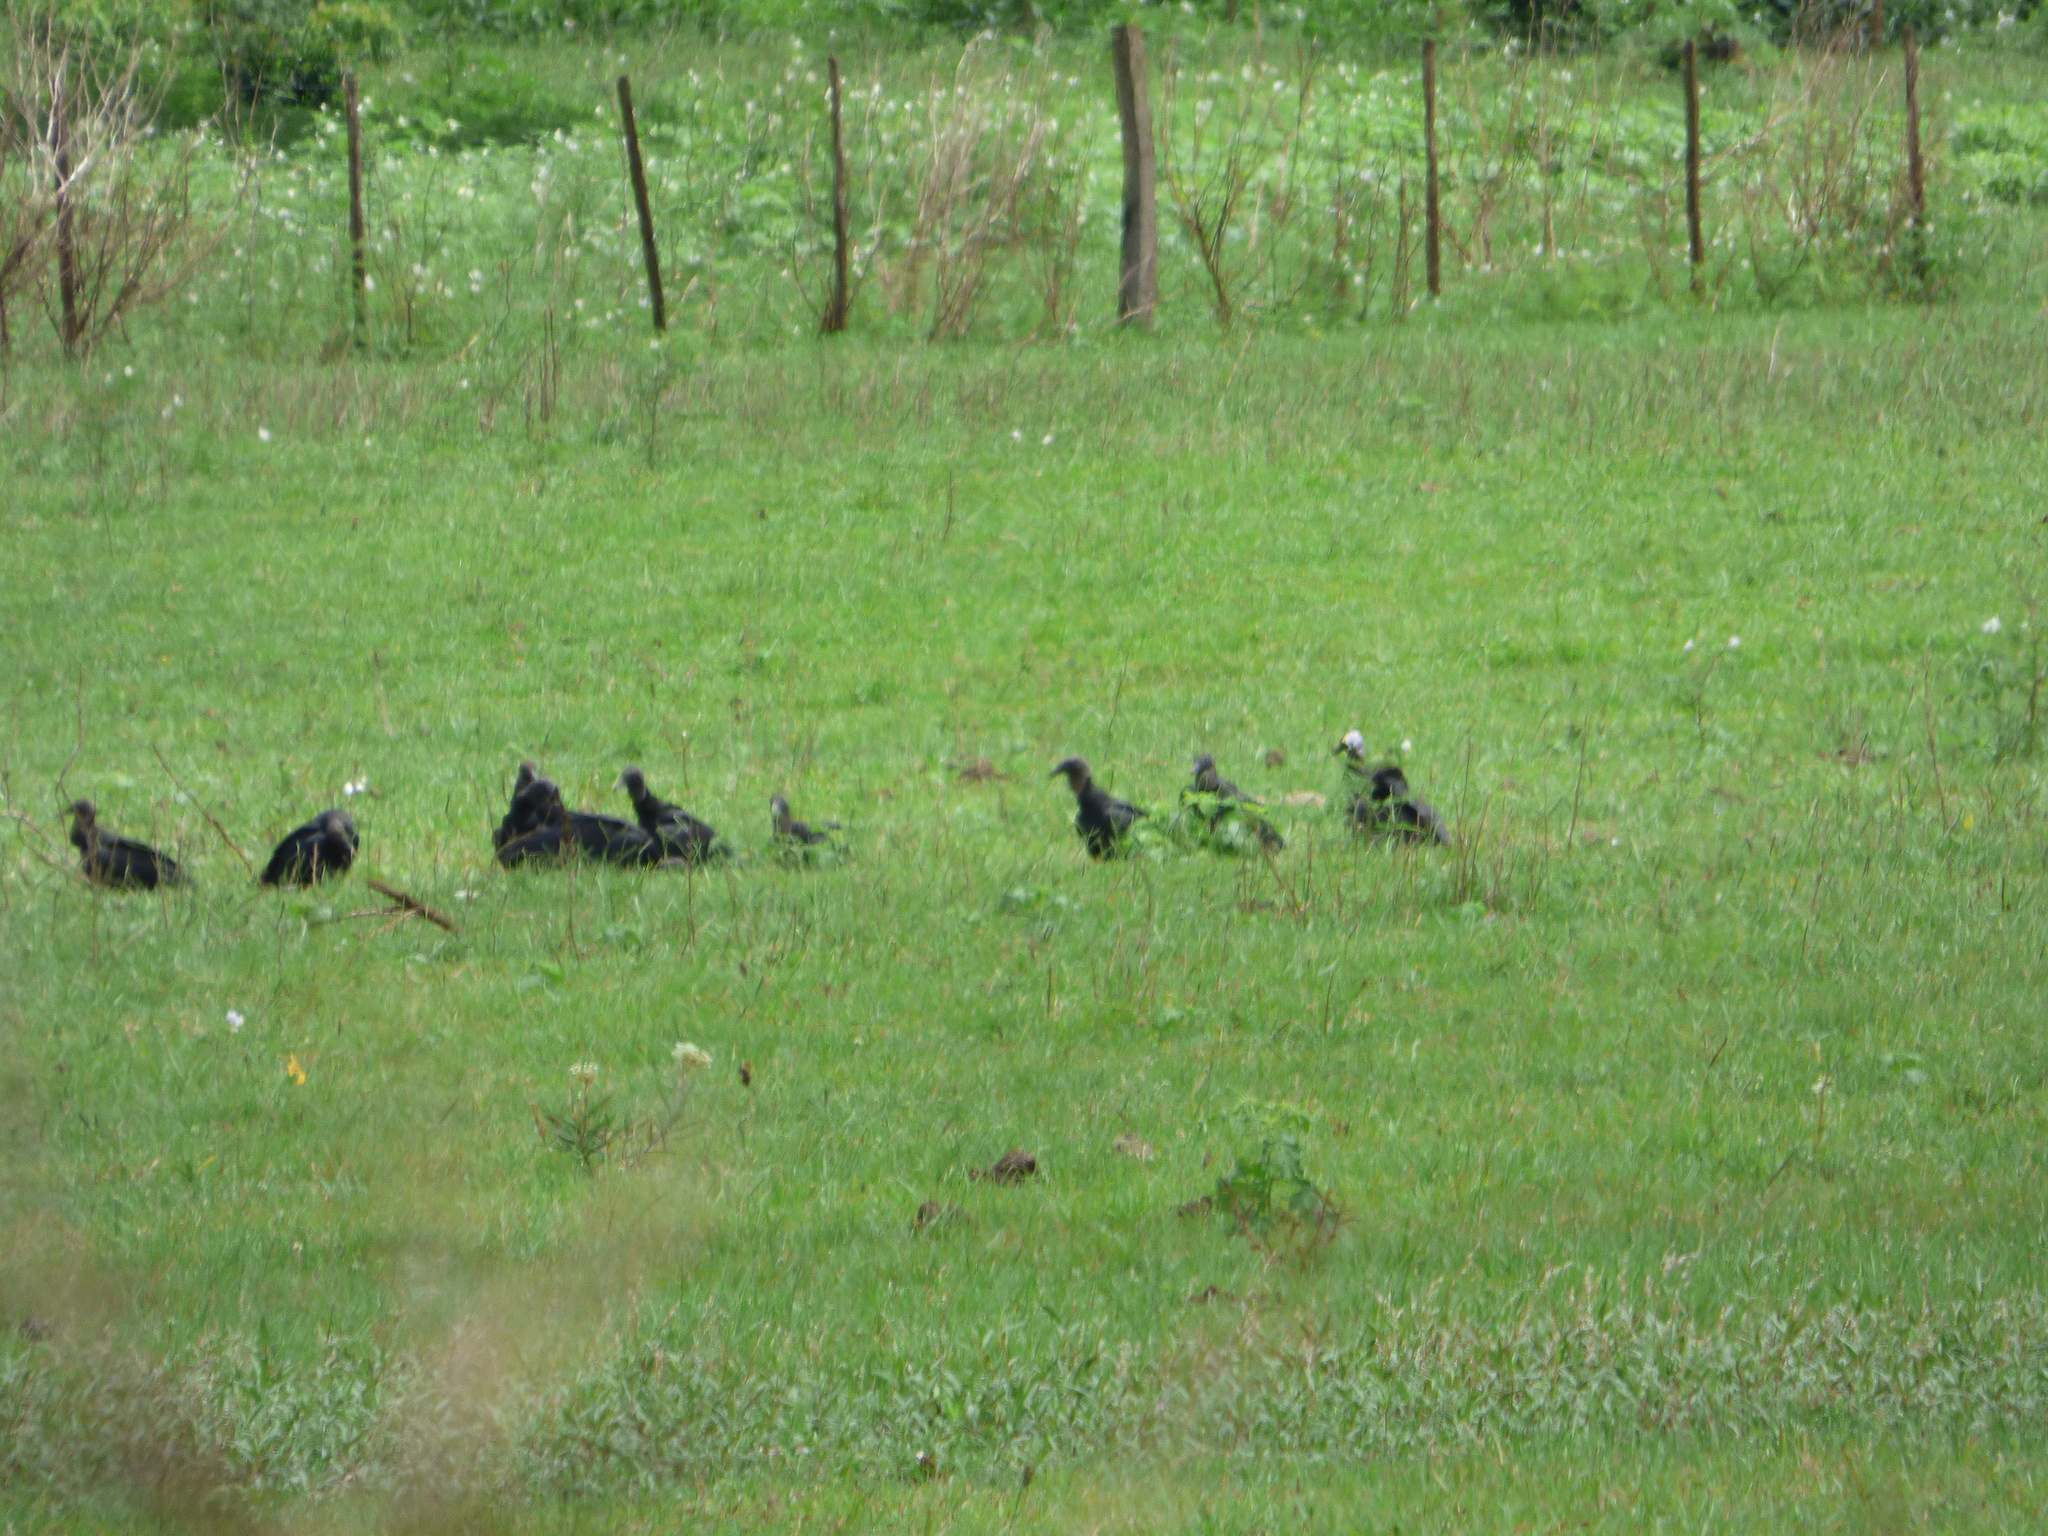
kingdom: Animalia
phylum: Chordata
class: Aves
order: Accipitriformes
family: Cathartidae
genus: Coragyps
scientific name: Coragyps atratus
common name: Black vulture
